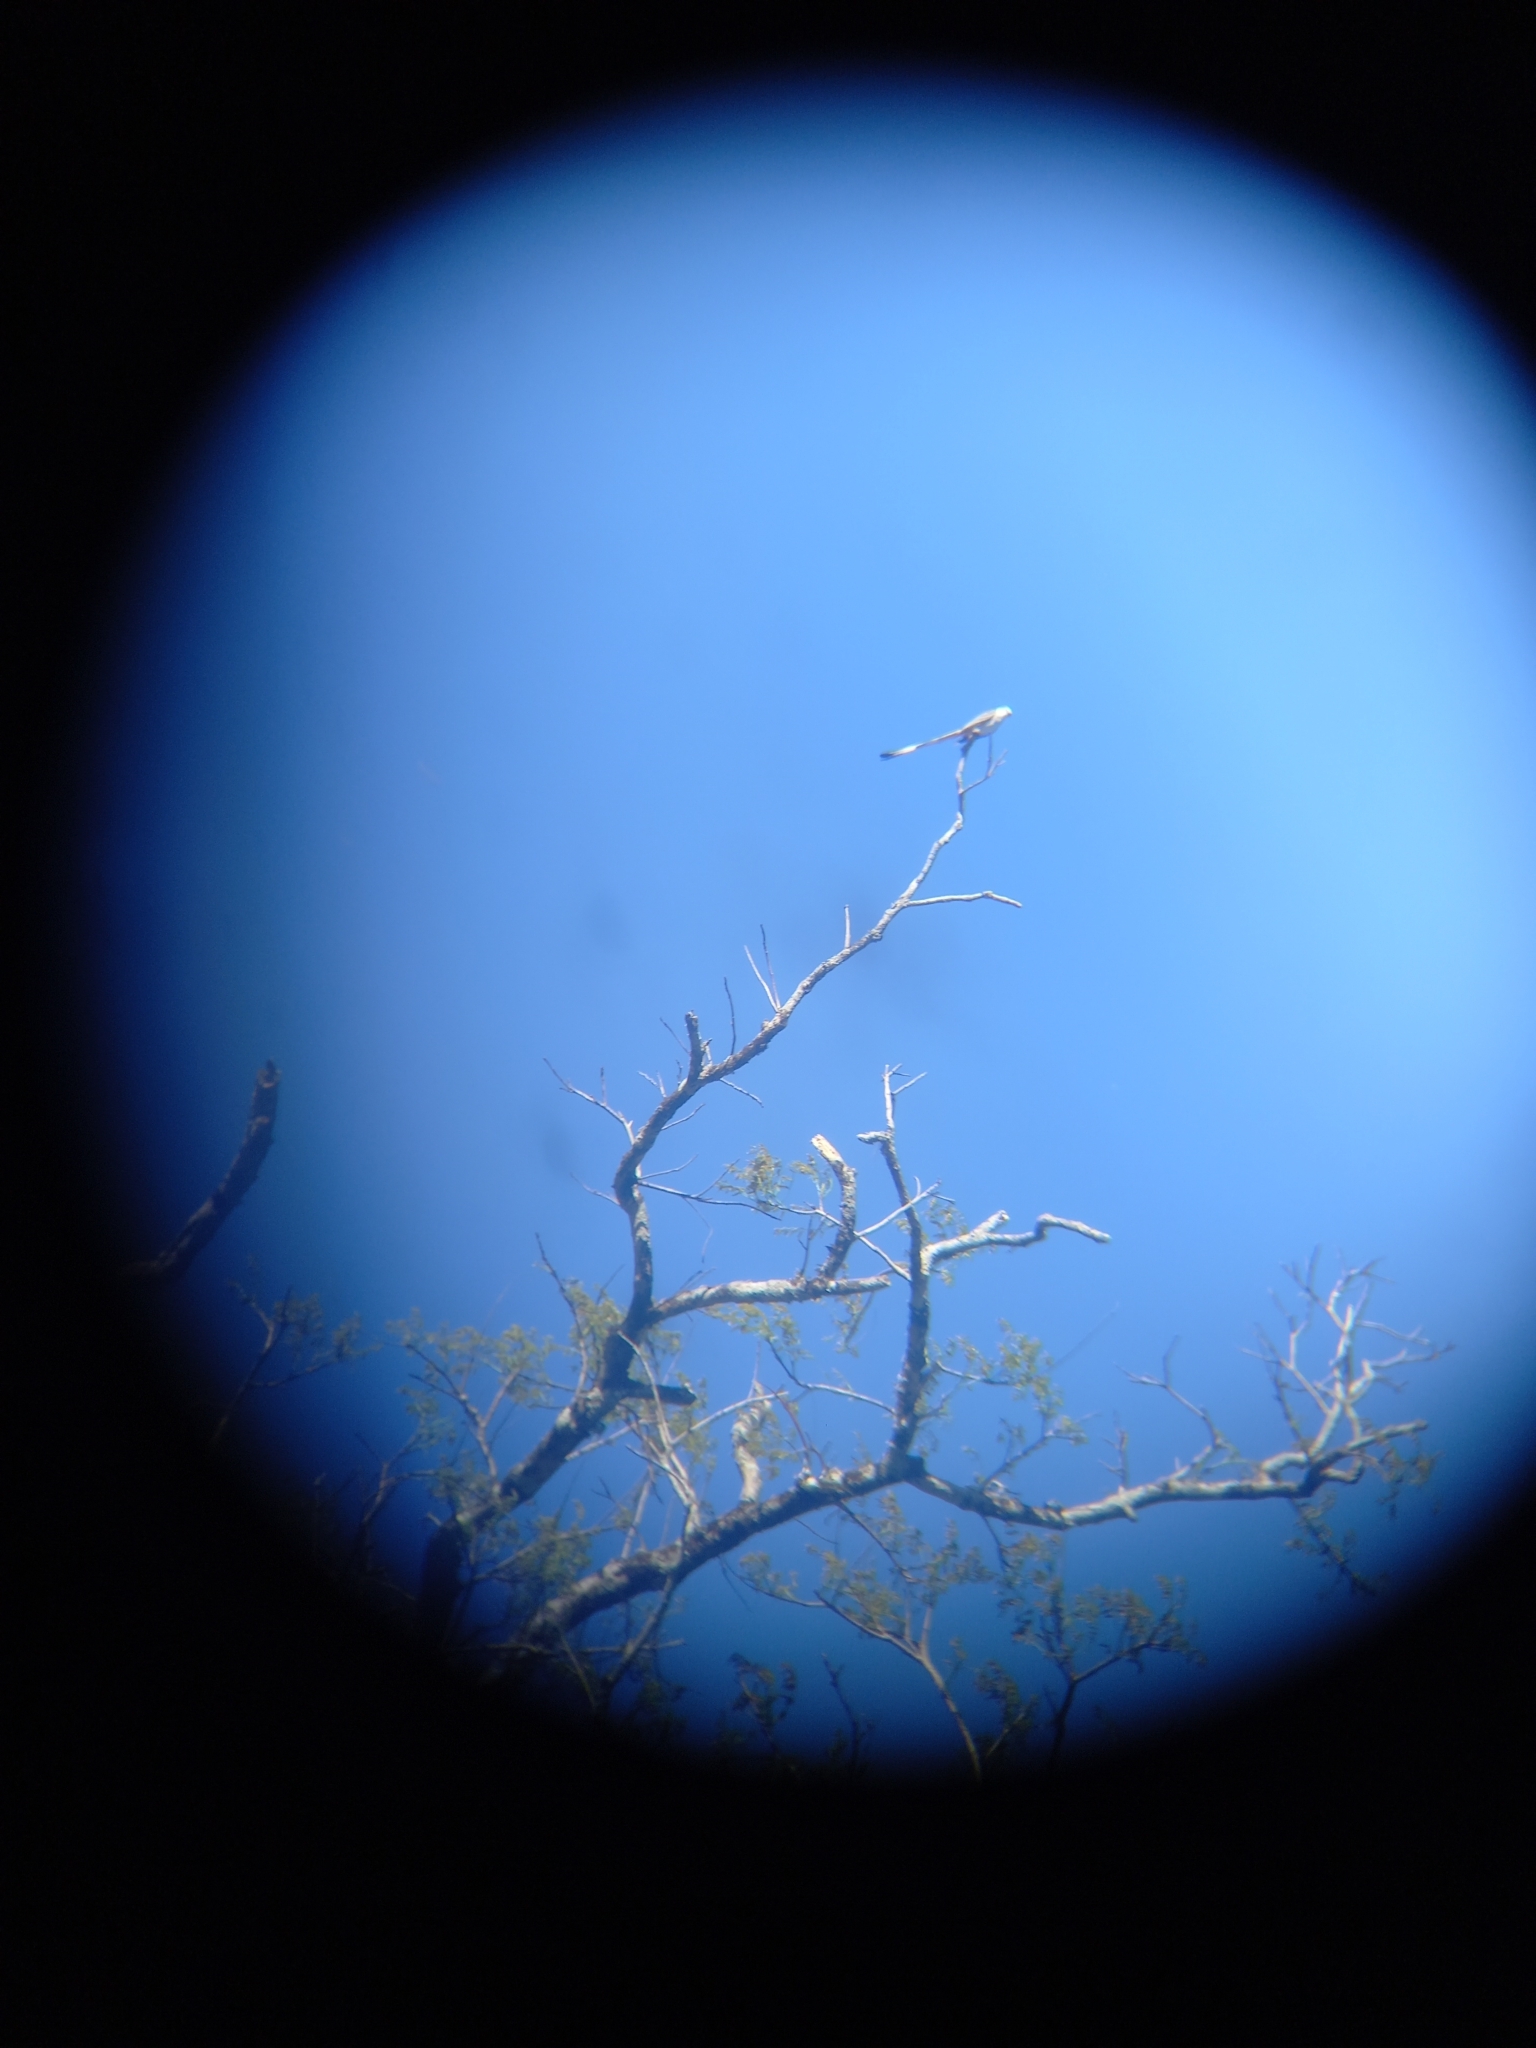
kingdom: Animalia
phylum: Chordata
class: Aves
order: Passeriformes
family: Tyrannidae
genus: Tyrannus
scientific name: Tyrannus forficatus
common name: Scissor-tailed flycatcher
